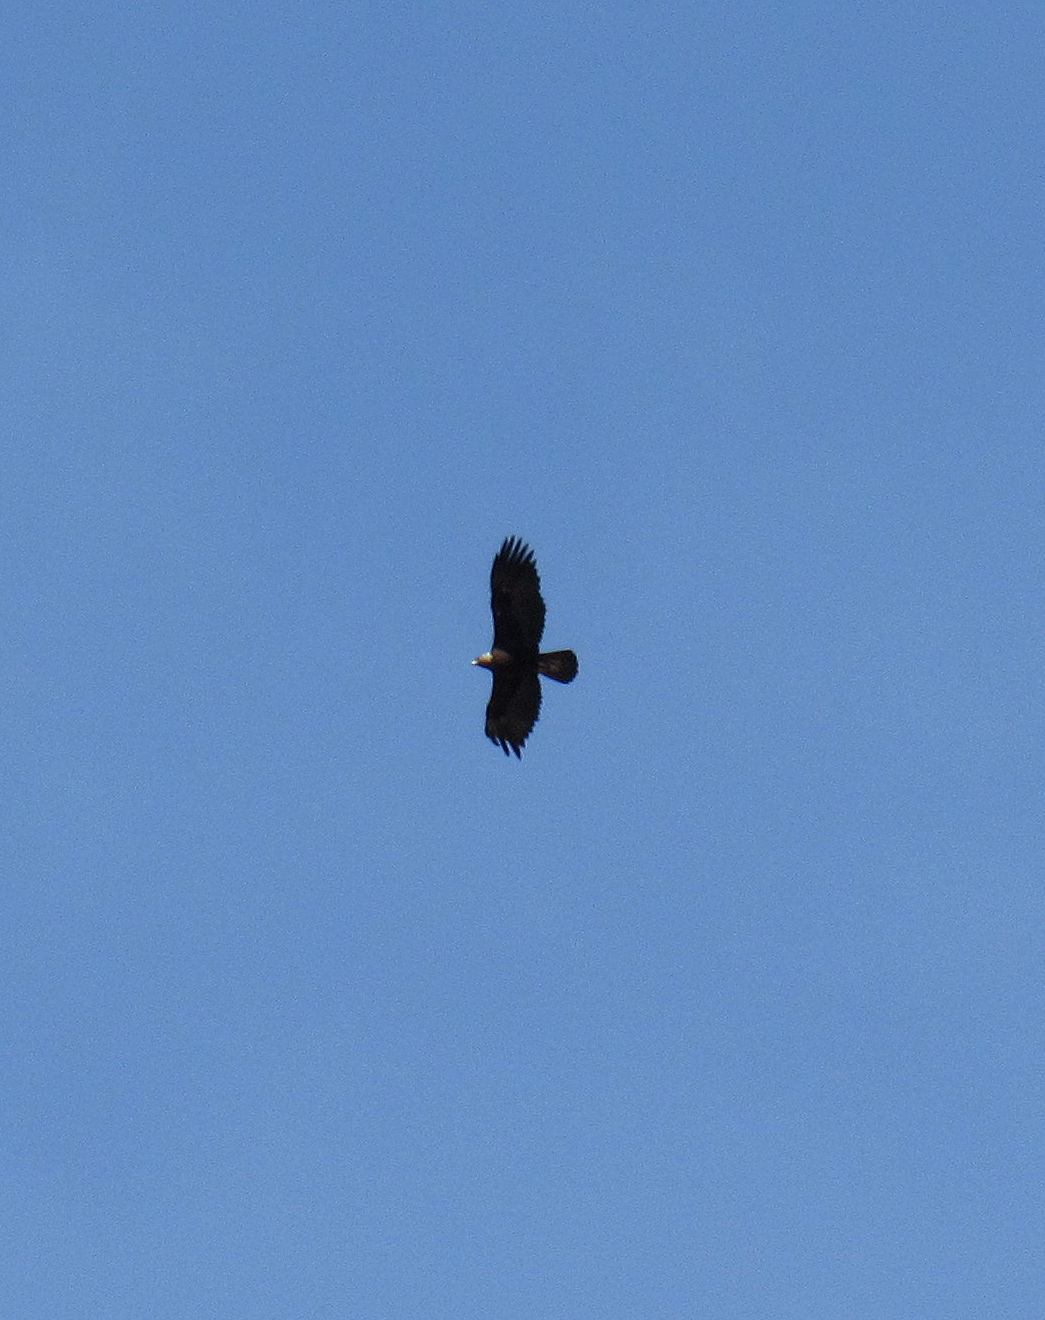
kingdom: Animalia
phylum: Chordata
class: Aves
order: Accipitriformes
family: Accipitridae
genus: Aquila
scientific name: Aquila chrysaetos
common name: Golden eagle
